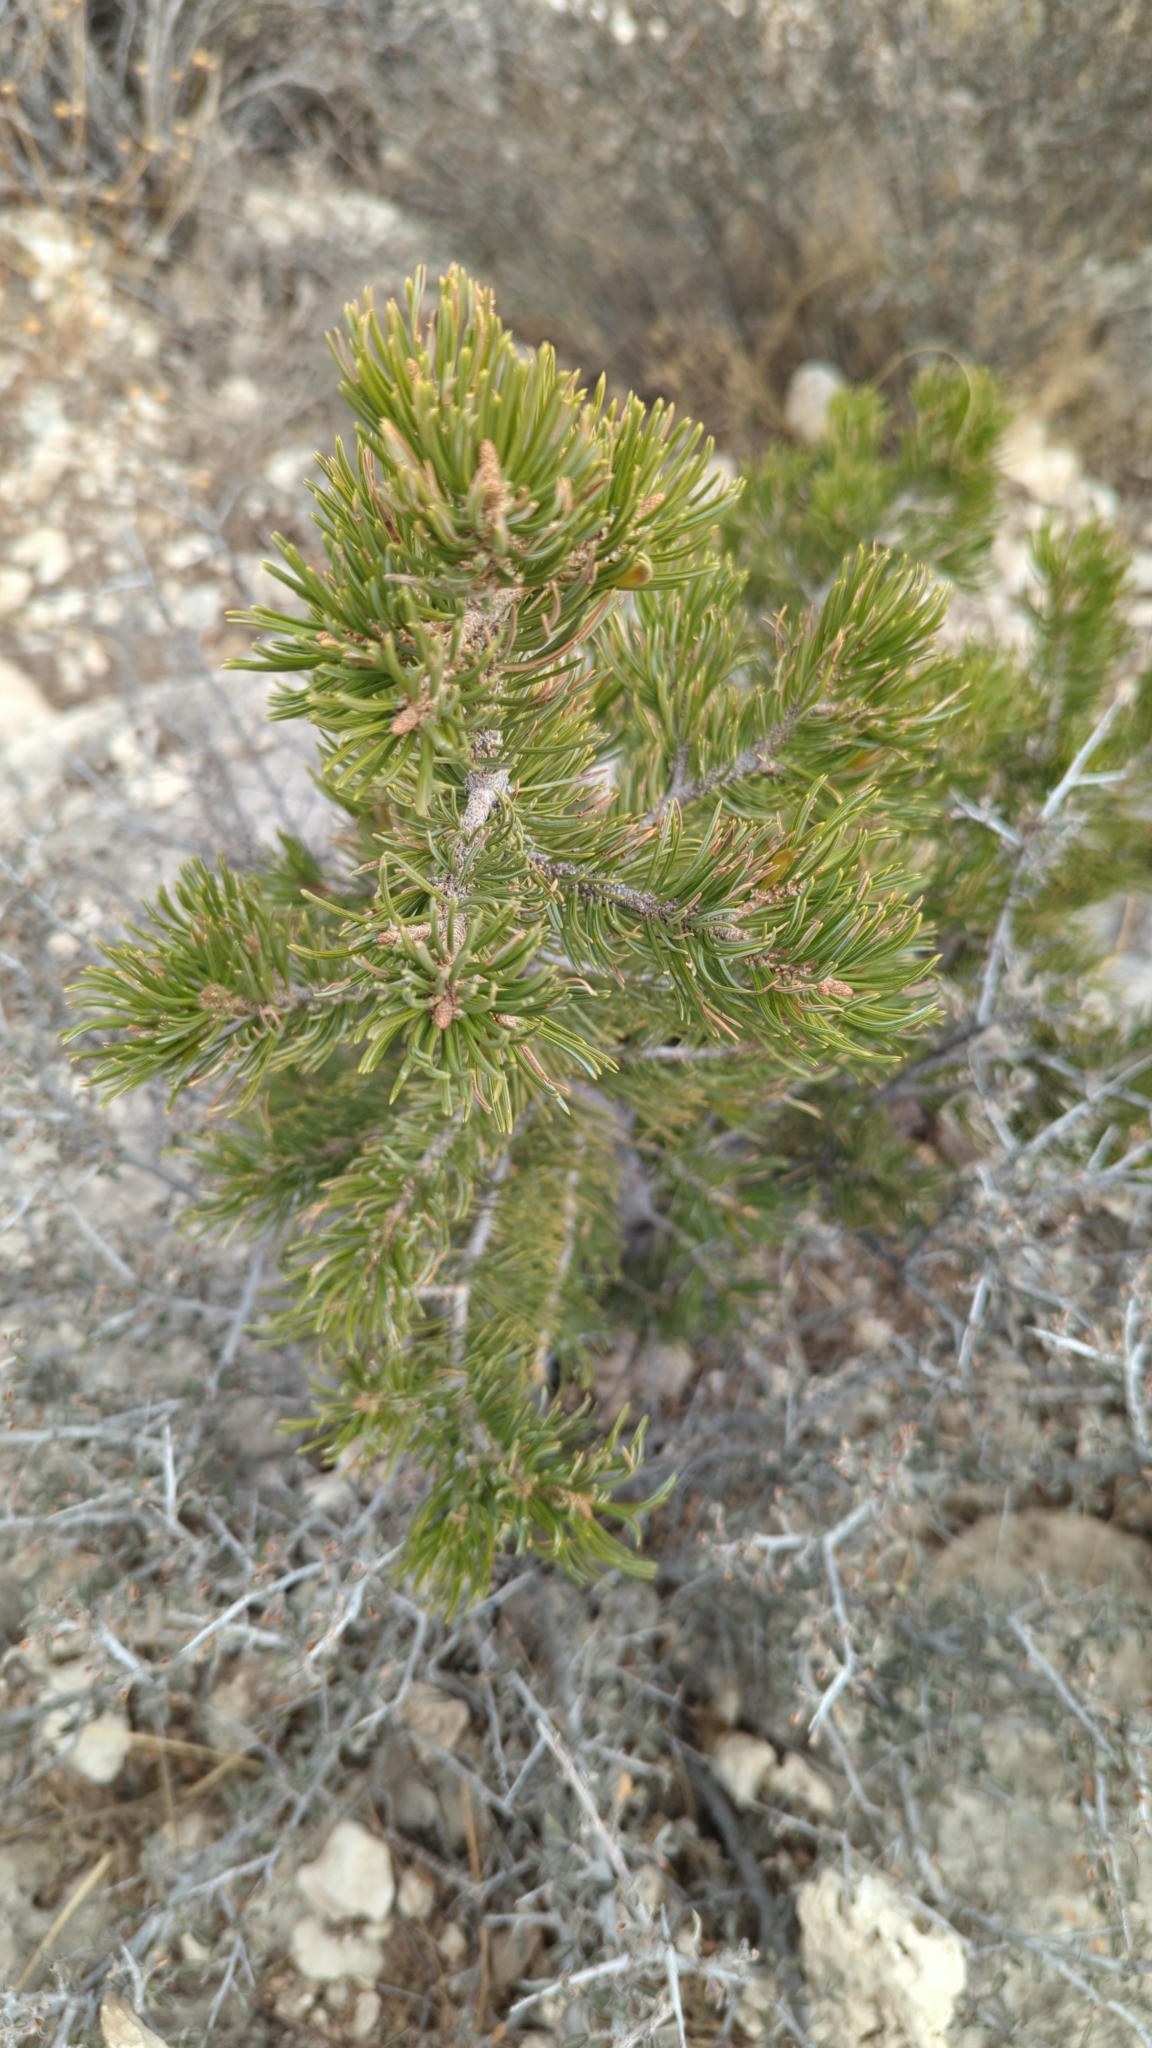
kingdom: Plantae
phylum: Tracheophyta
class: Pinopsida
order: Pinales
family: Pinaceae
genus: Pinus
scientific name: Pinus edulis
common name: Colorado pinyon
